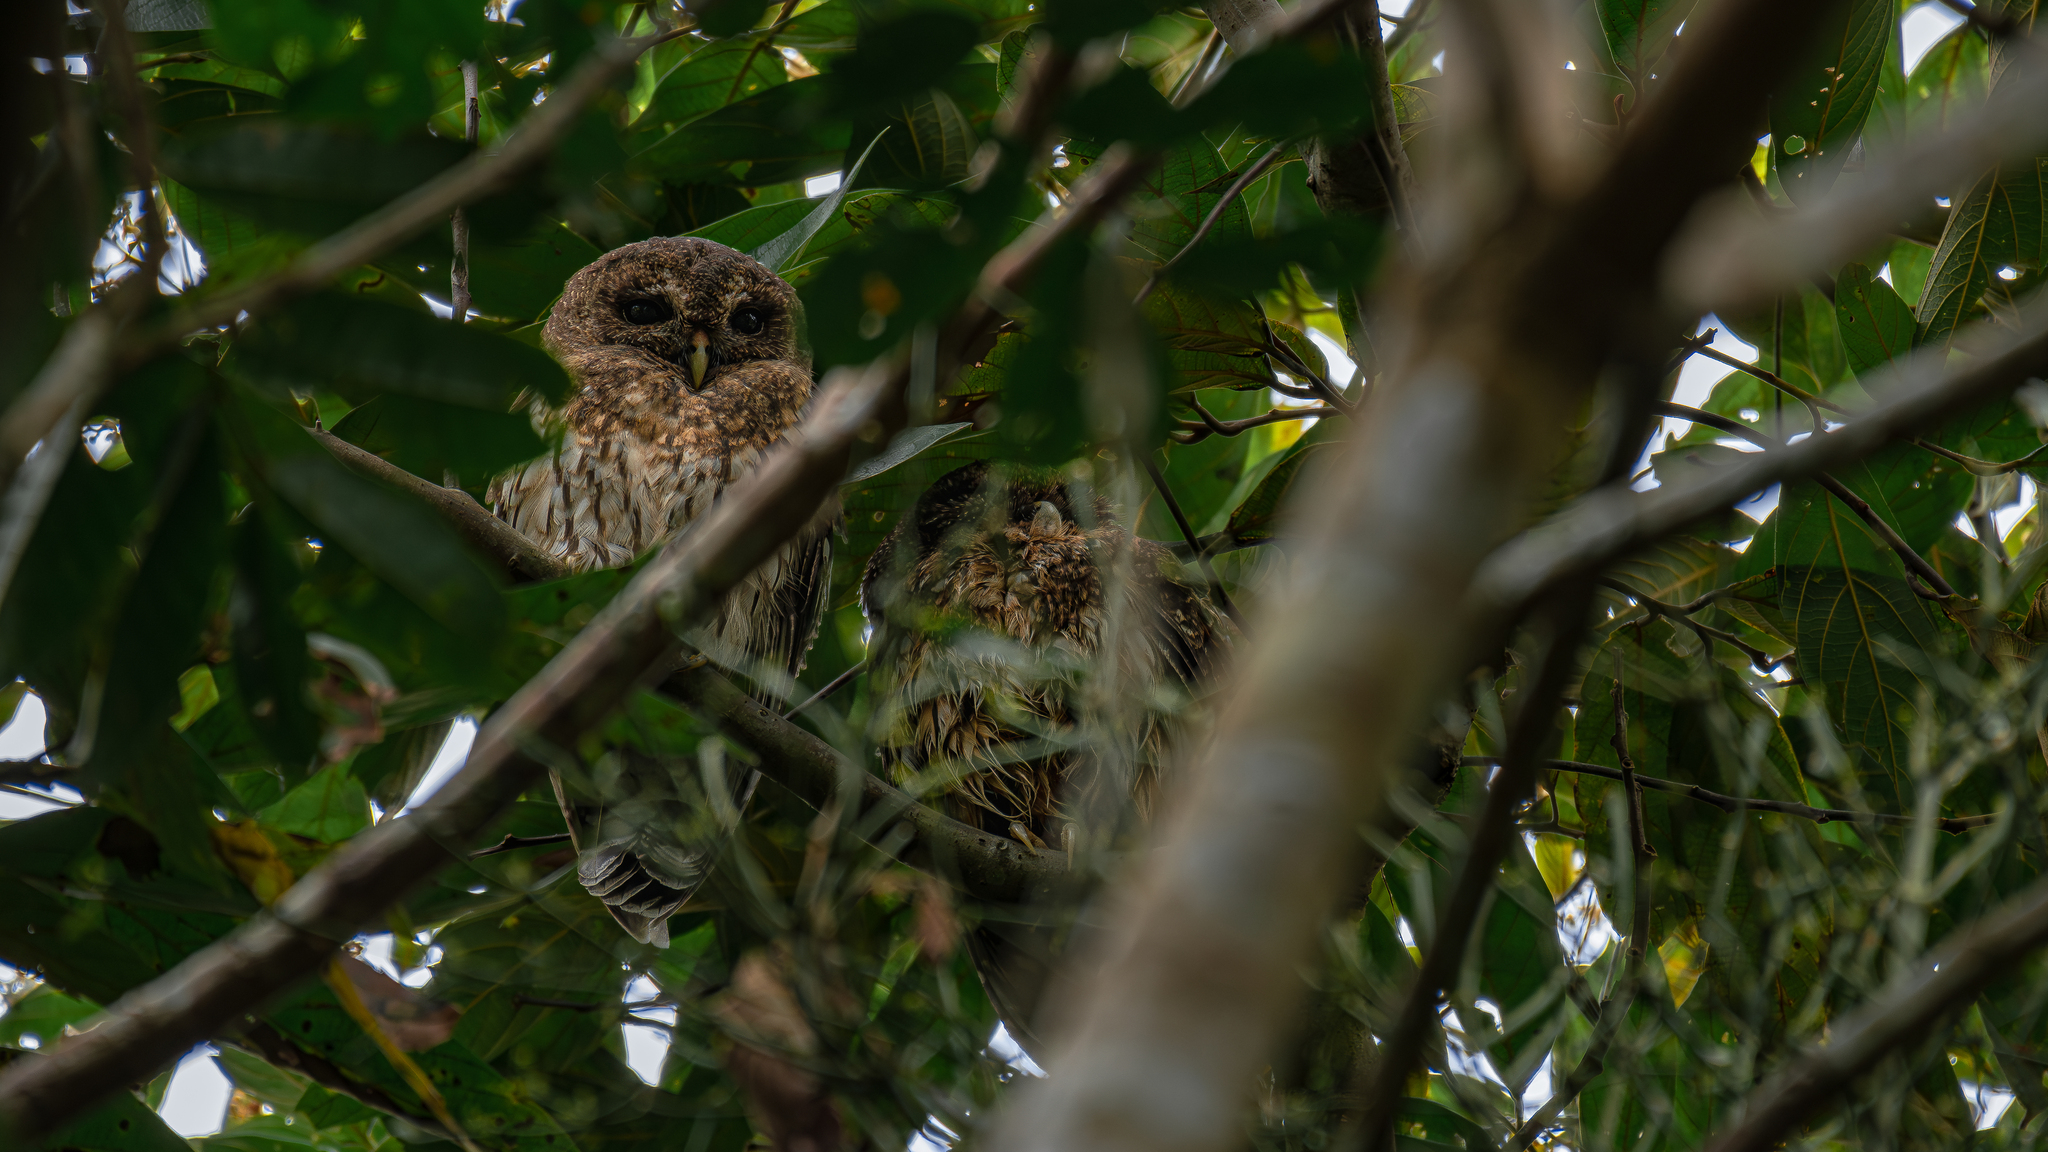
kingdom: Animalia
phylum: Chordata
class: Aves
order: Strigiformes
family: Strigidae
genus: Strix
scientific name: Strix virgata
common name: Mottled owl
